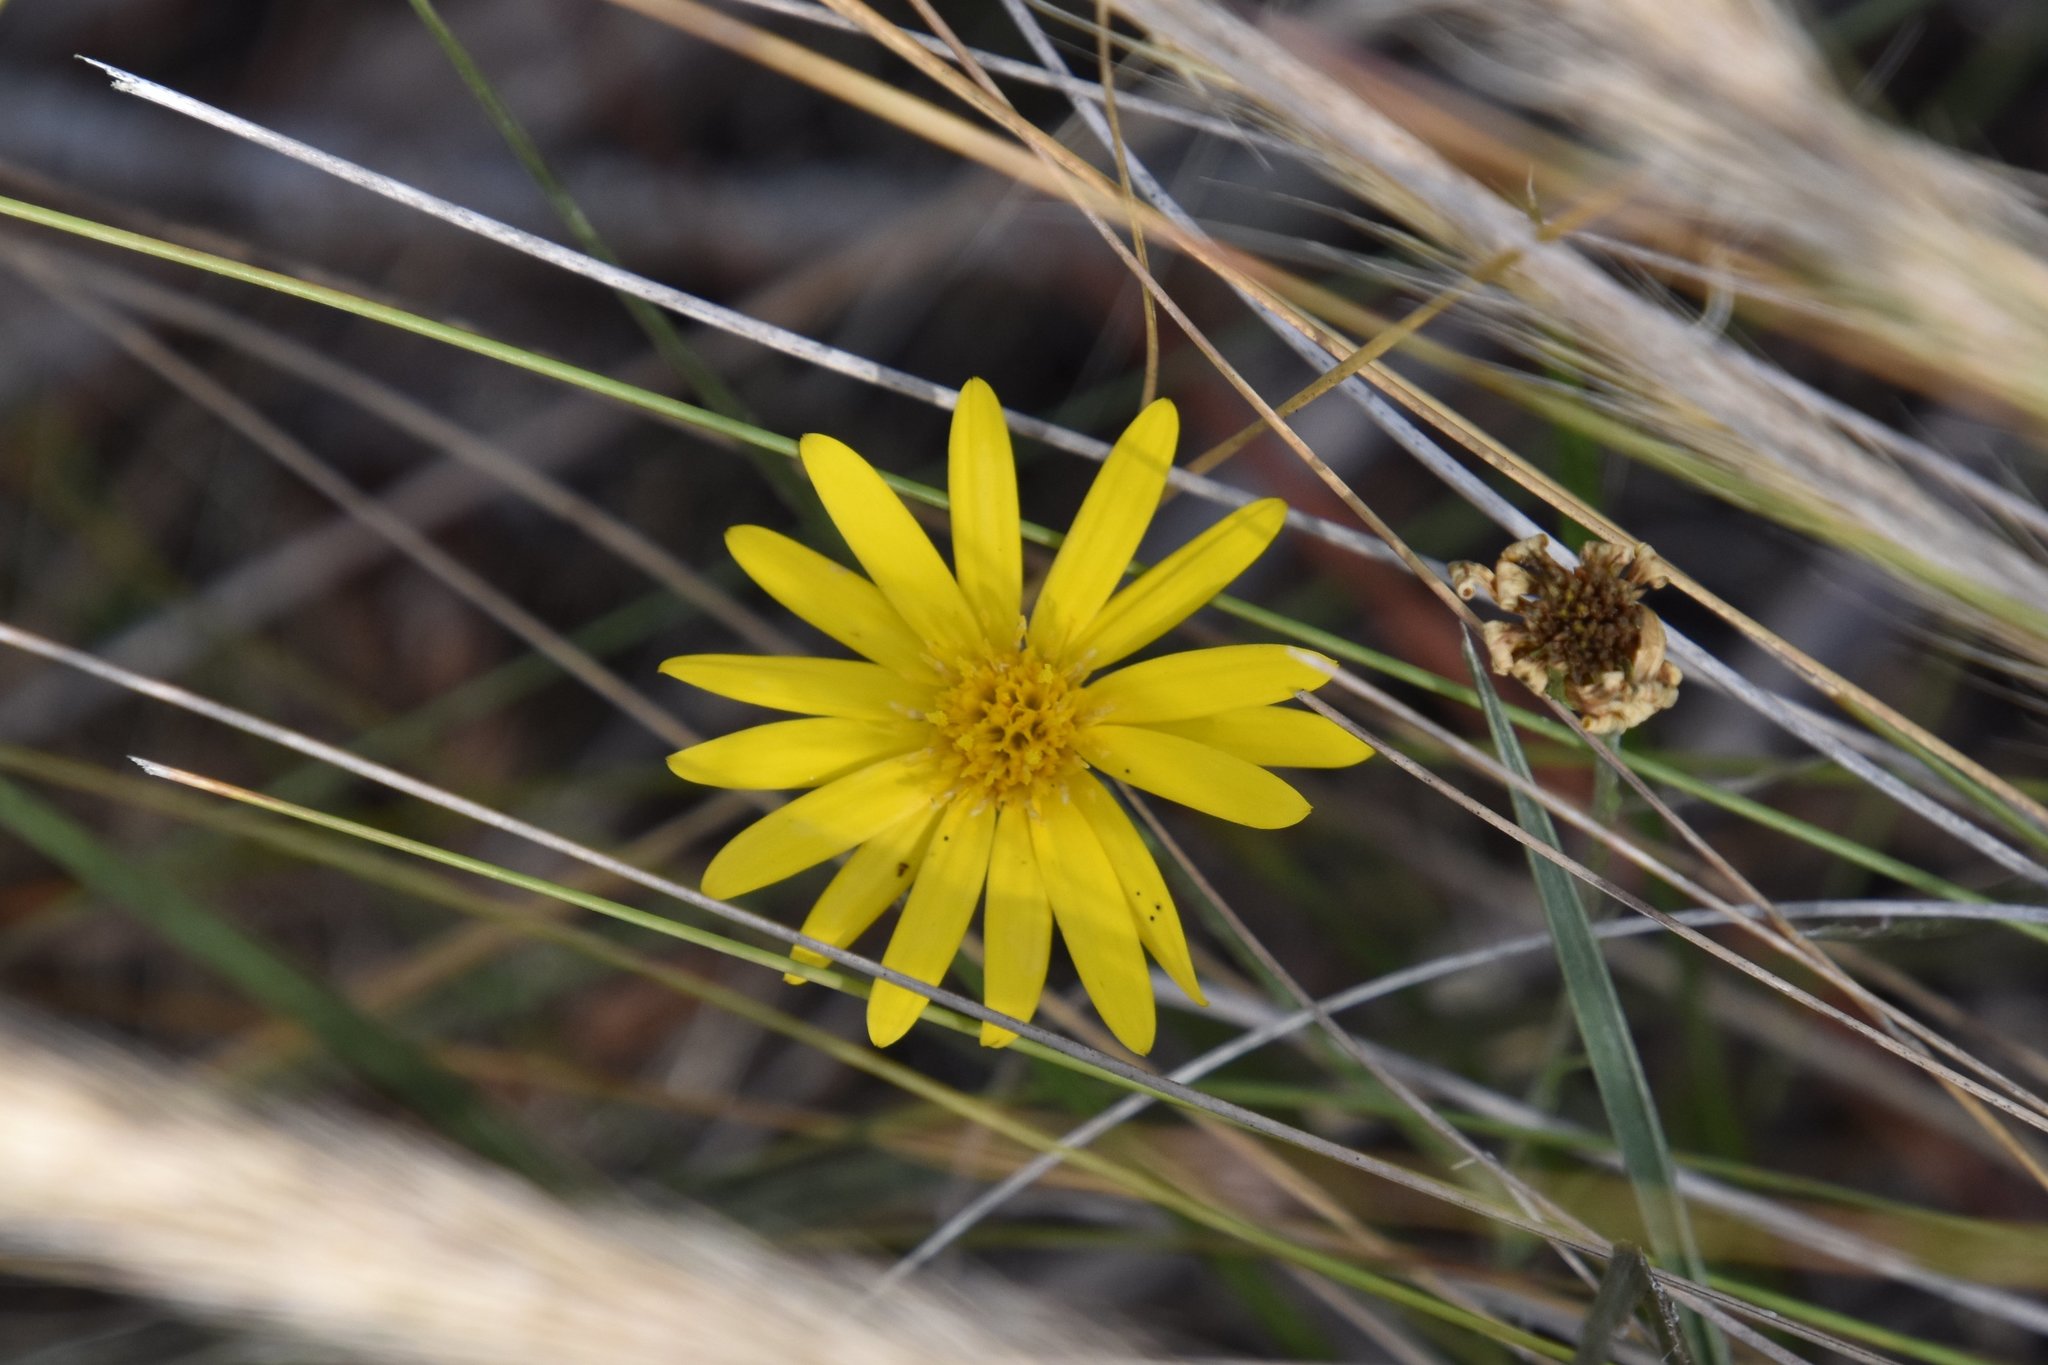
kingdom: Plantae
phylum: Tracheophyta
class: Magnoliopsida
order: Asterales
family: Asteraceae
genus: Pityopsis
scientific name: Pityopsis graminifolia
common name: Grass-leaf golden-aster
